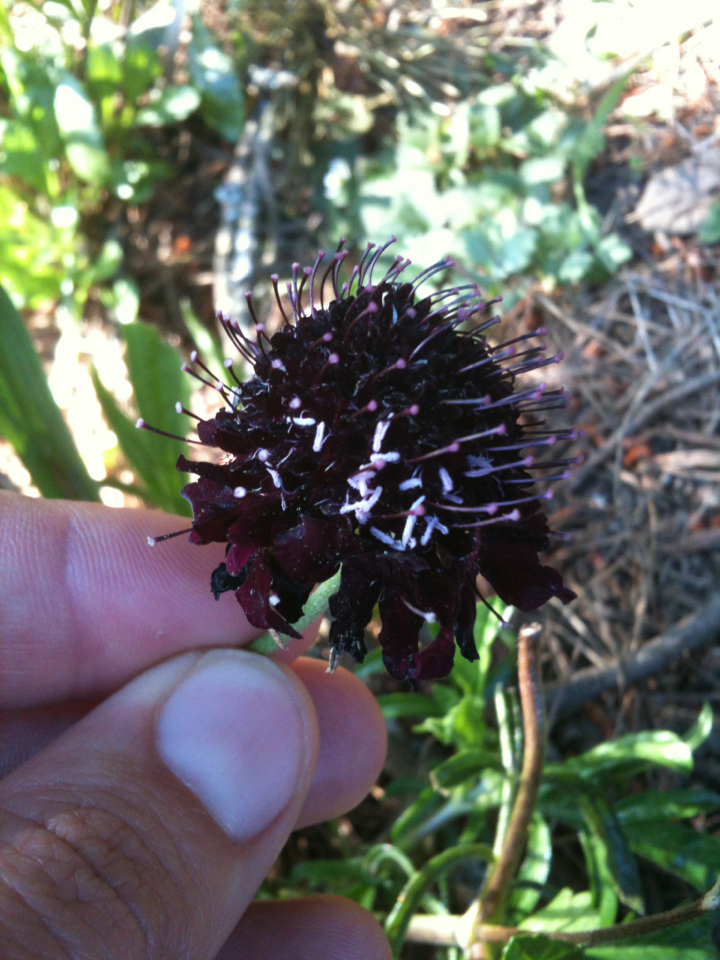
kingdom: Plantae
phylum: Tracheophyta
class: Magnoliopsida
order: Dipsacales
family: Caprifoliaceae
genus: Sixalix
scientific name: Sixalix atropurpurea
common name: Sweet scabious
